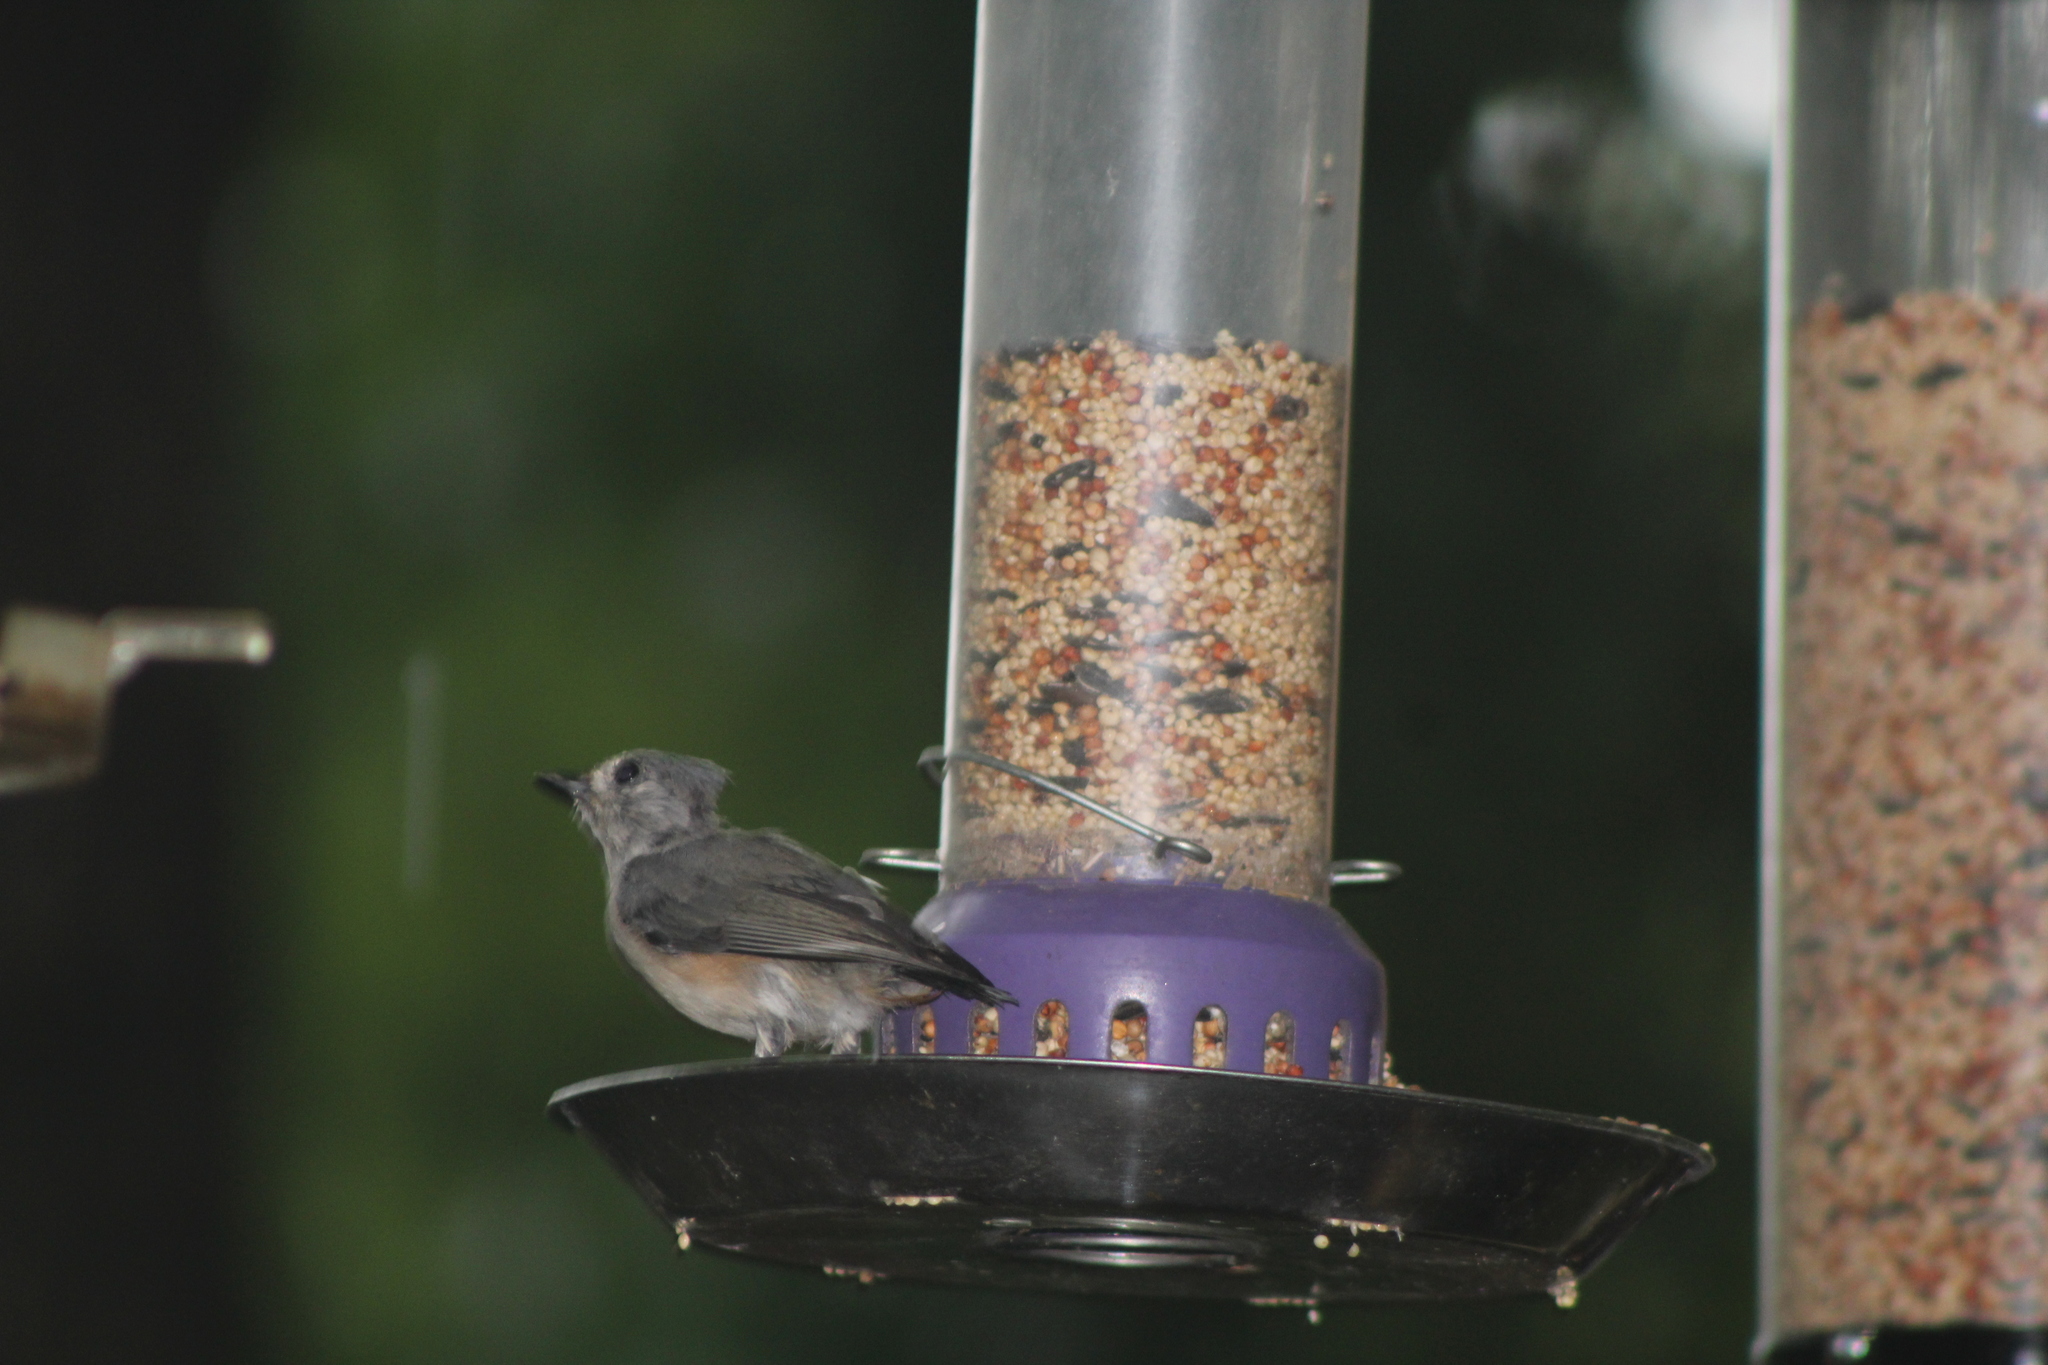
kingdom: Animalia
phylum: Chordata
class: Aves
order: Passeriformes
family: Paridae
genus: Baeolophus
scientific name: Baeolophus bicolor
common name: Tufted titmouse
